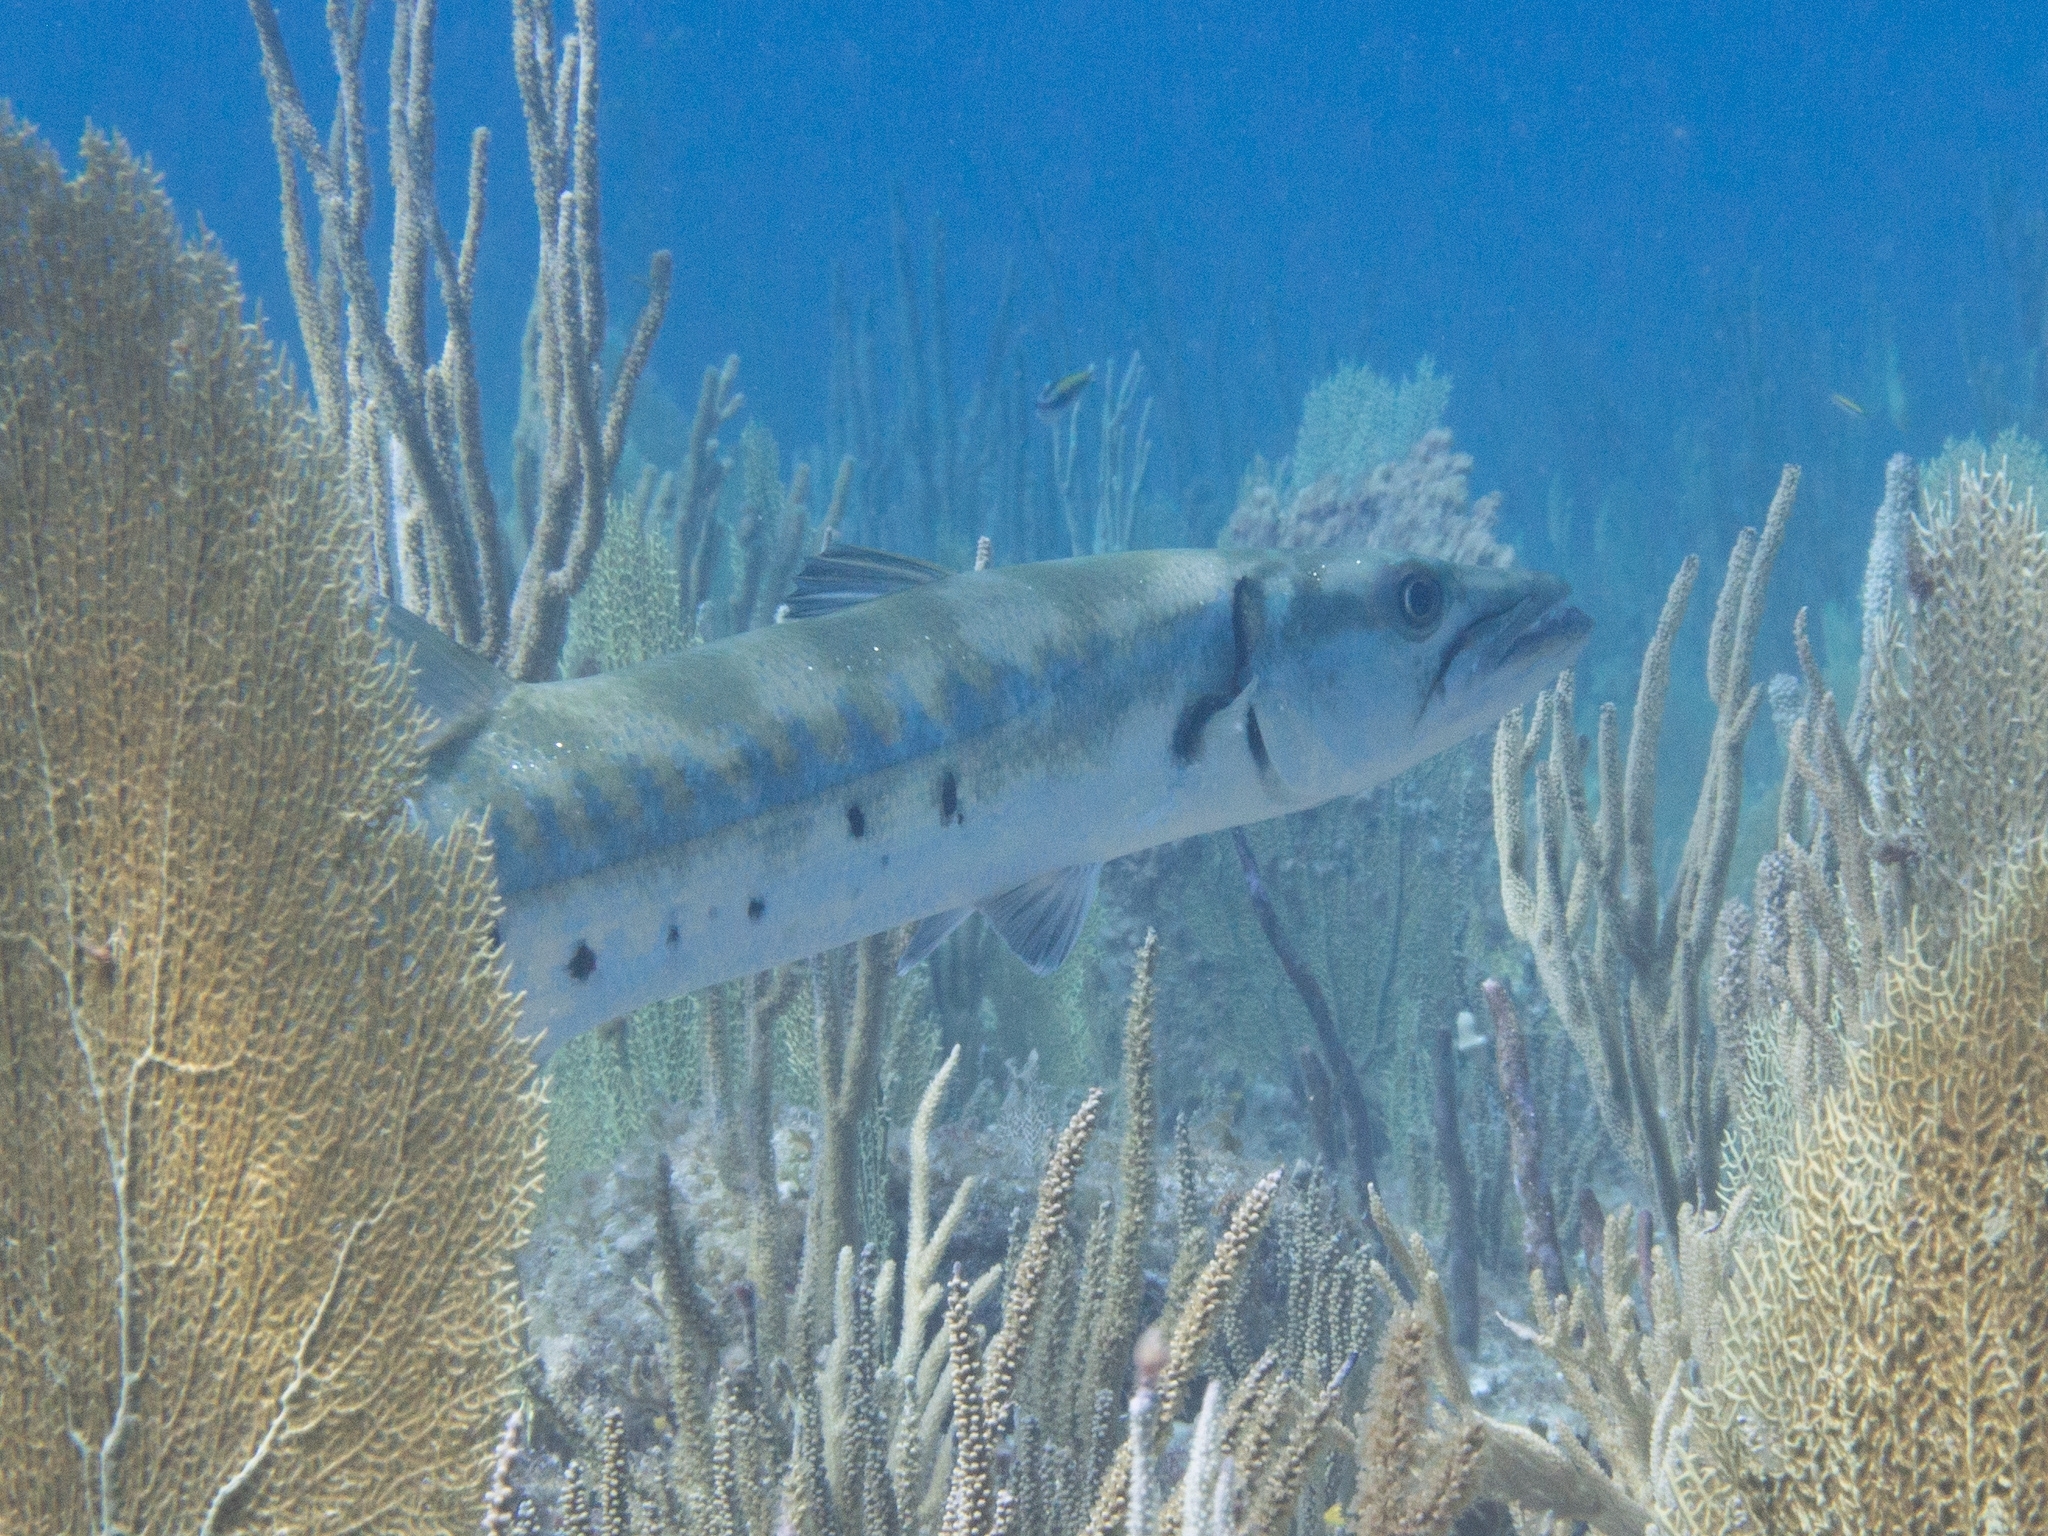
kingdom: Animalia
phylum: Chordata
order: Perciformes
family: Sphyraenidae
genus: Sphyraena
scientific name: Sphyraena barracuda
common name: Great barracuda
